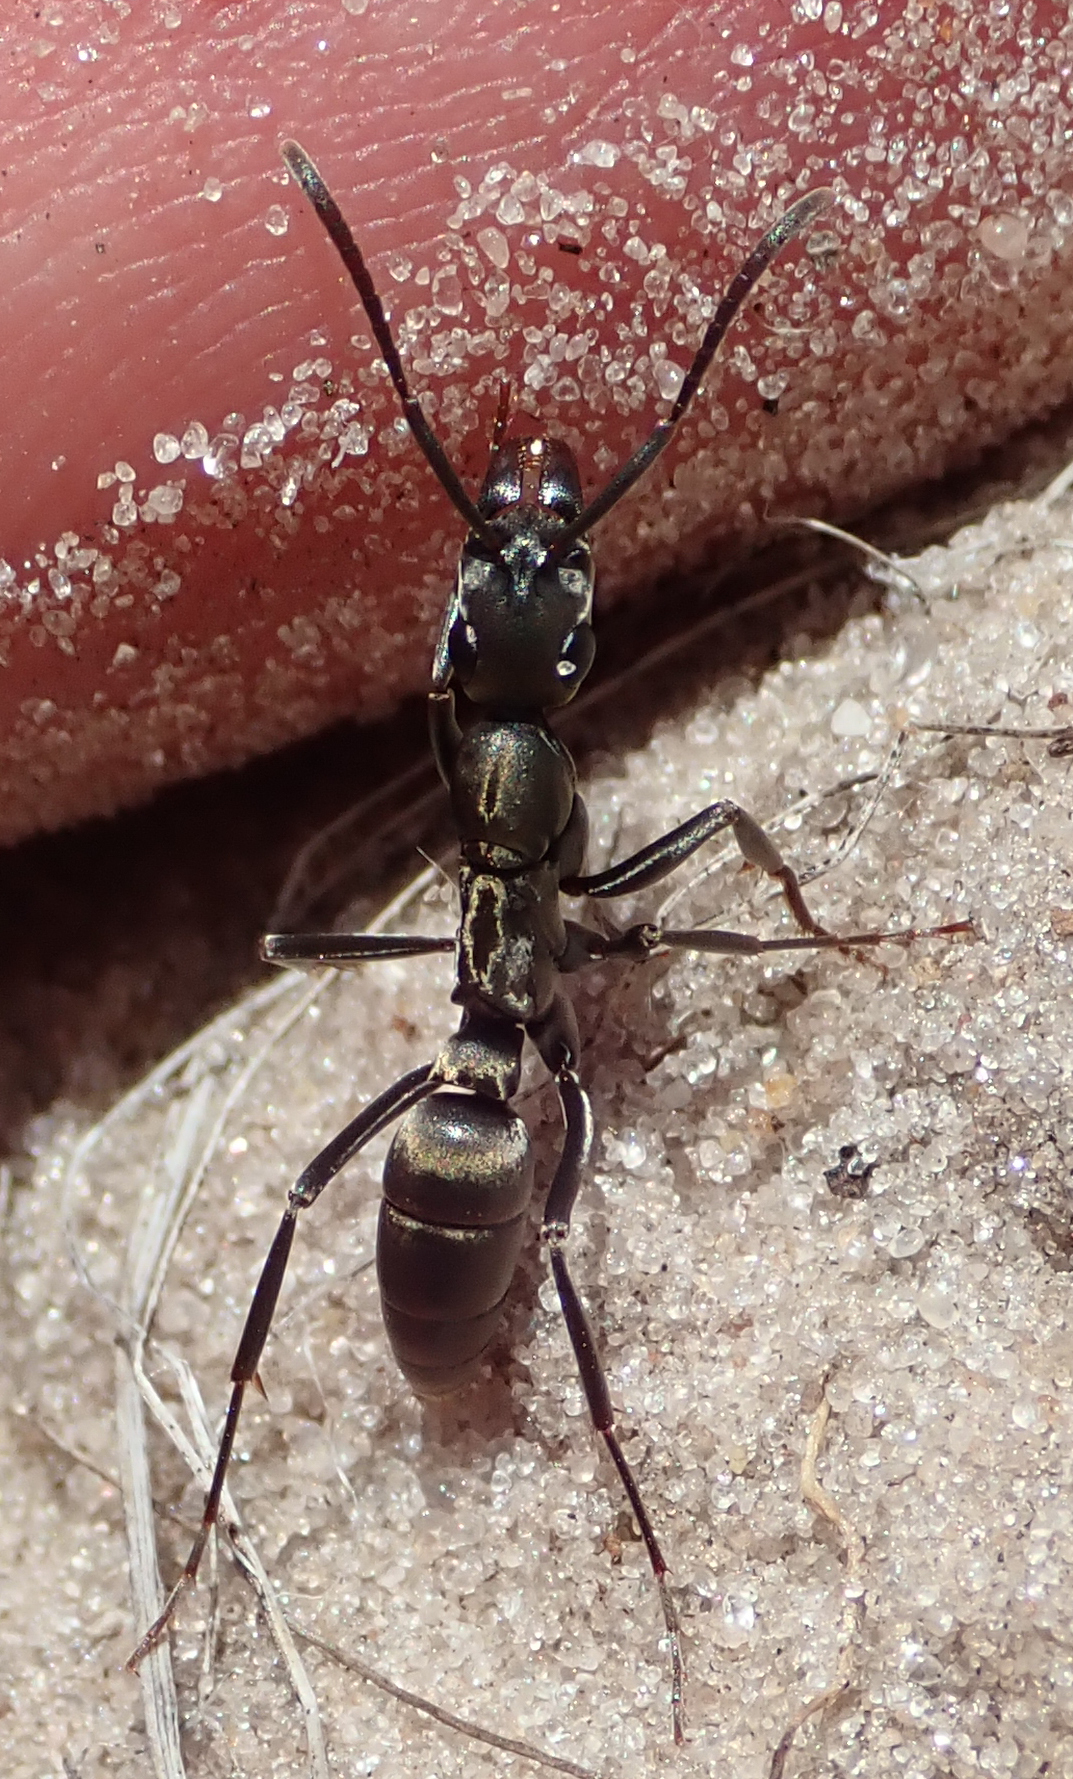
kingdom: Animalia
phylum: Arthropoda
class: Insecta
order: Hymenoptera
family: Formicidae
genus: Bothroponera
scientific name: Bothroponera berthoudi
